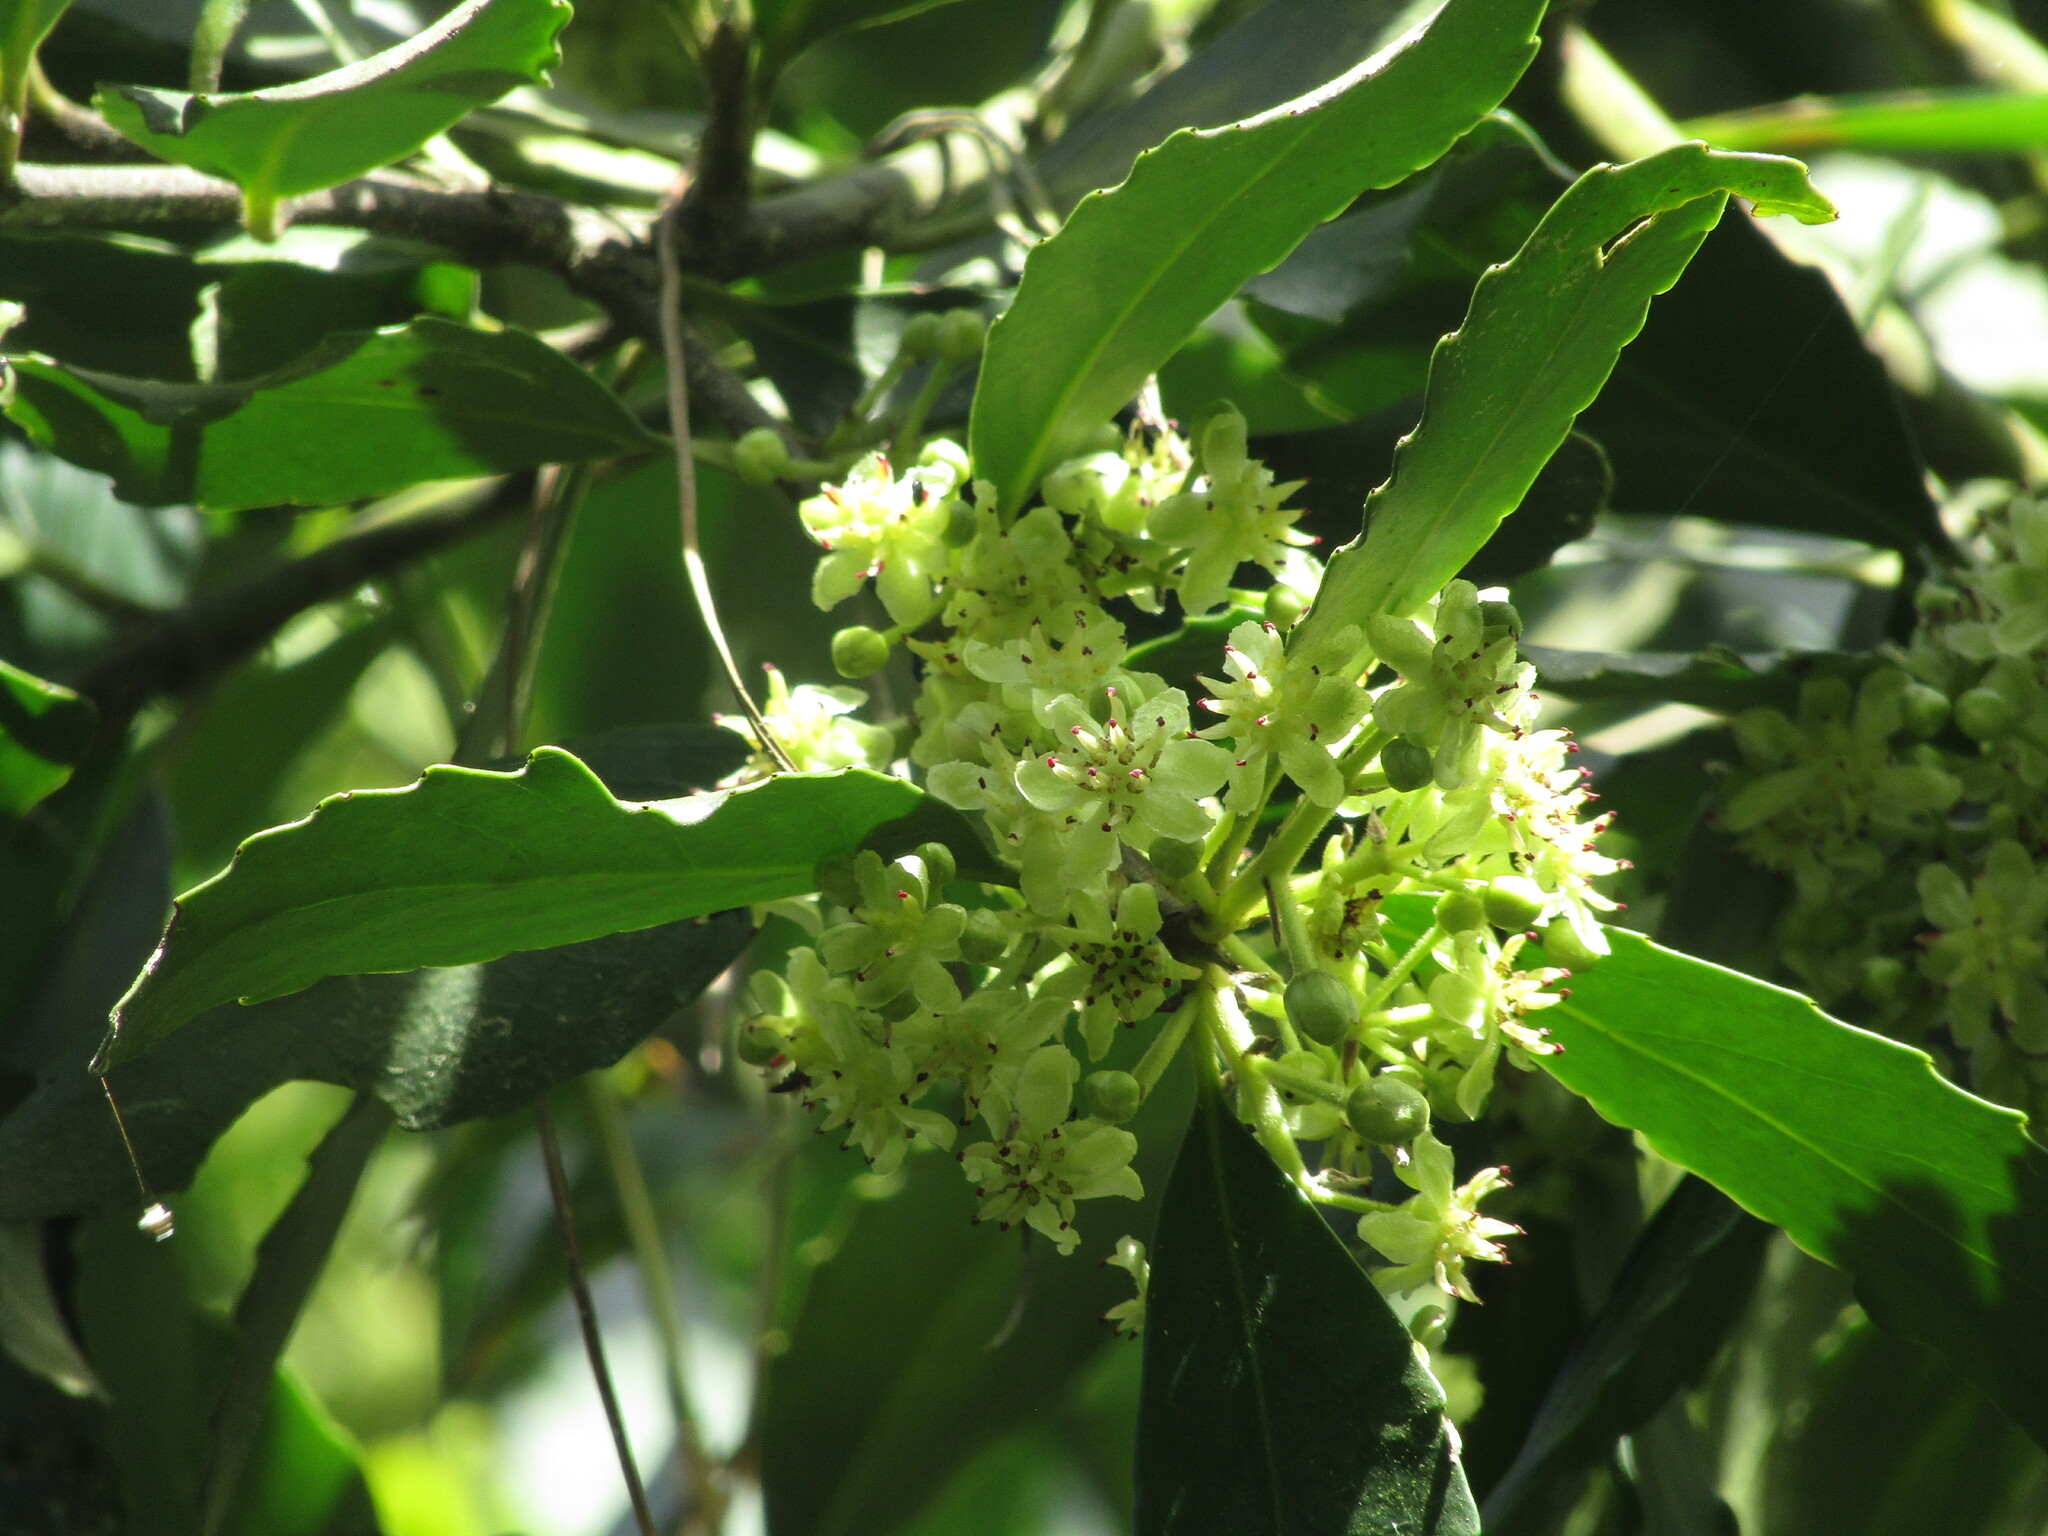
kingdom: Plantae
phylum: Tracheophyta
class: Magnoliopsida
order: Laurales
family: Atherospermataceae
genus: Laurelia
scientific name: Laurelia sempervirens
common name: Chilean laurel
